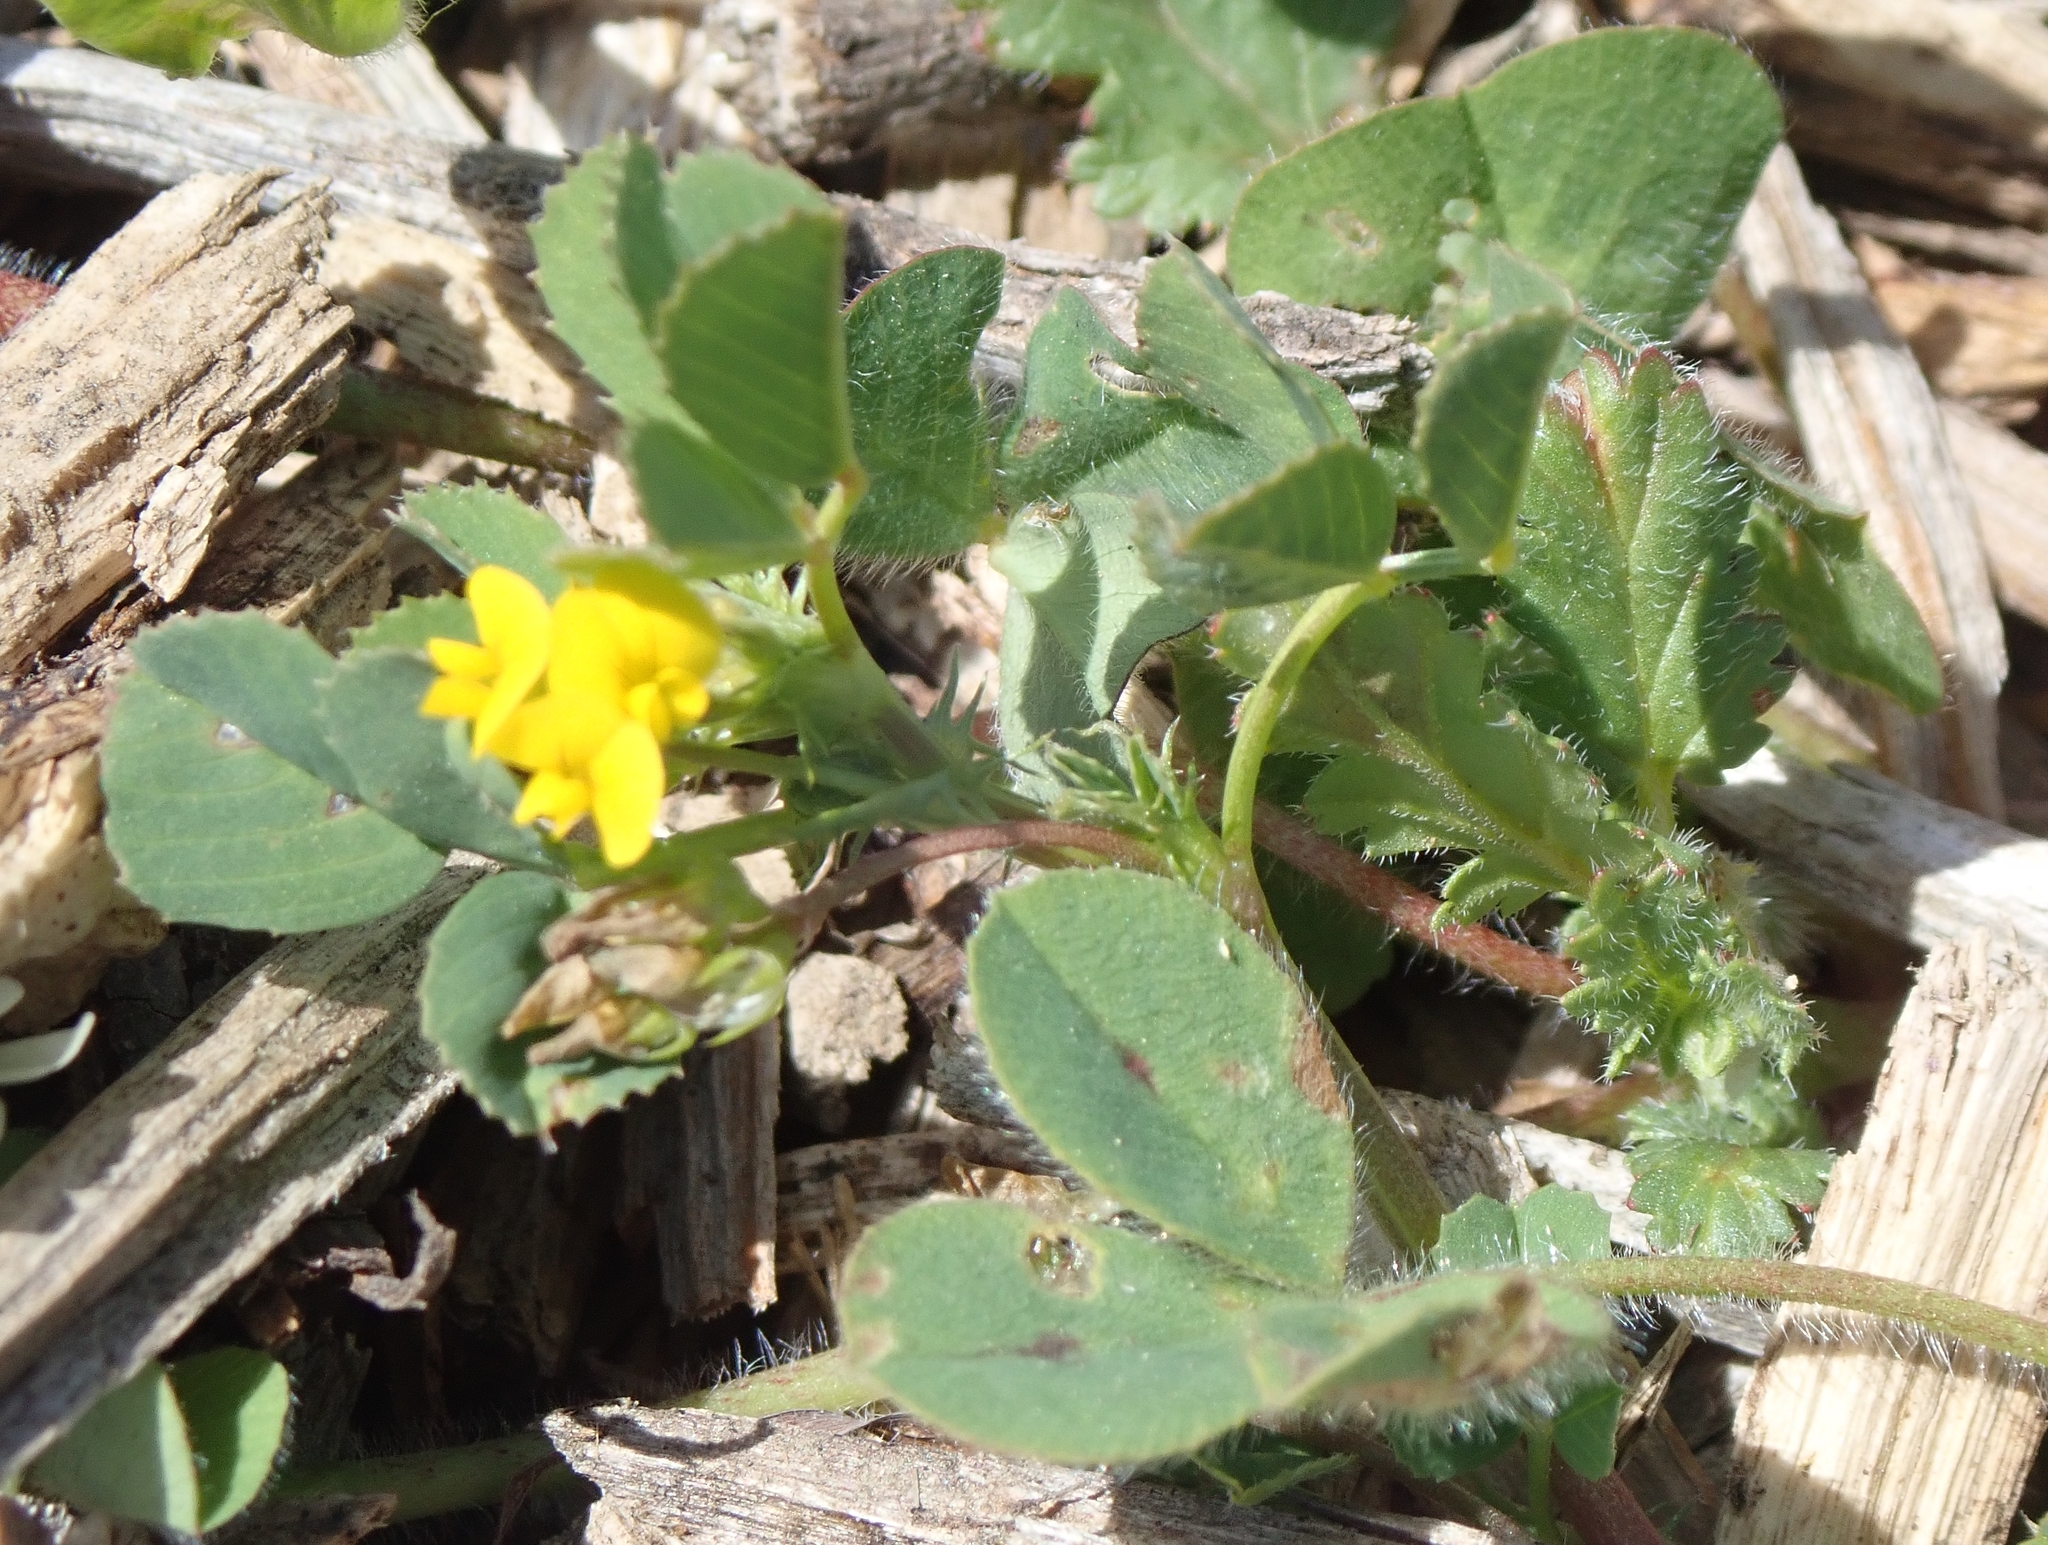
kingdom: Plantae
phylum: Tracheophyta
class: Magnoliopsida
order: Fabales
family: Fabaceae
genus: Medicago
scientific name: Medicago polymorpha
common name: Burclover
